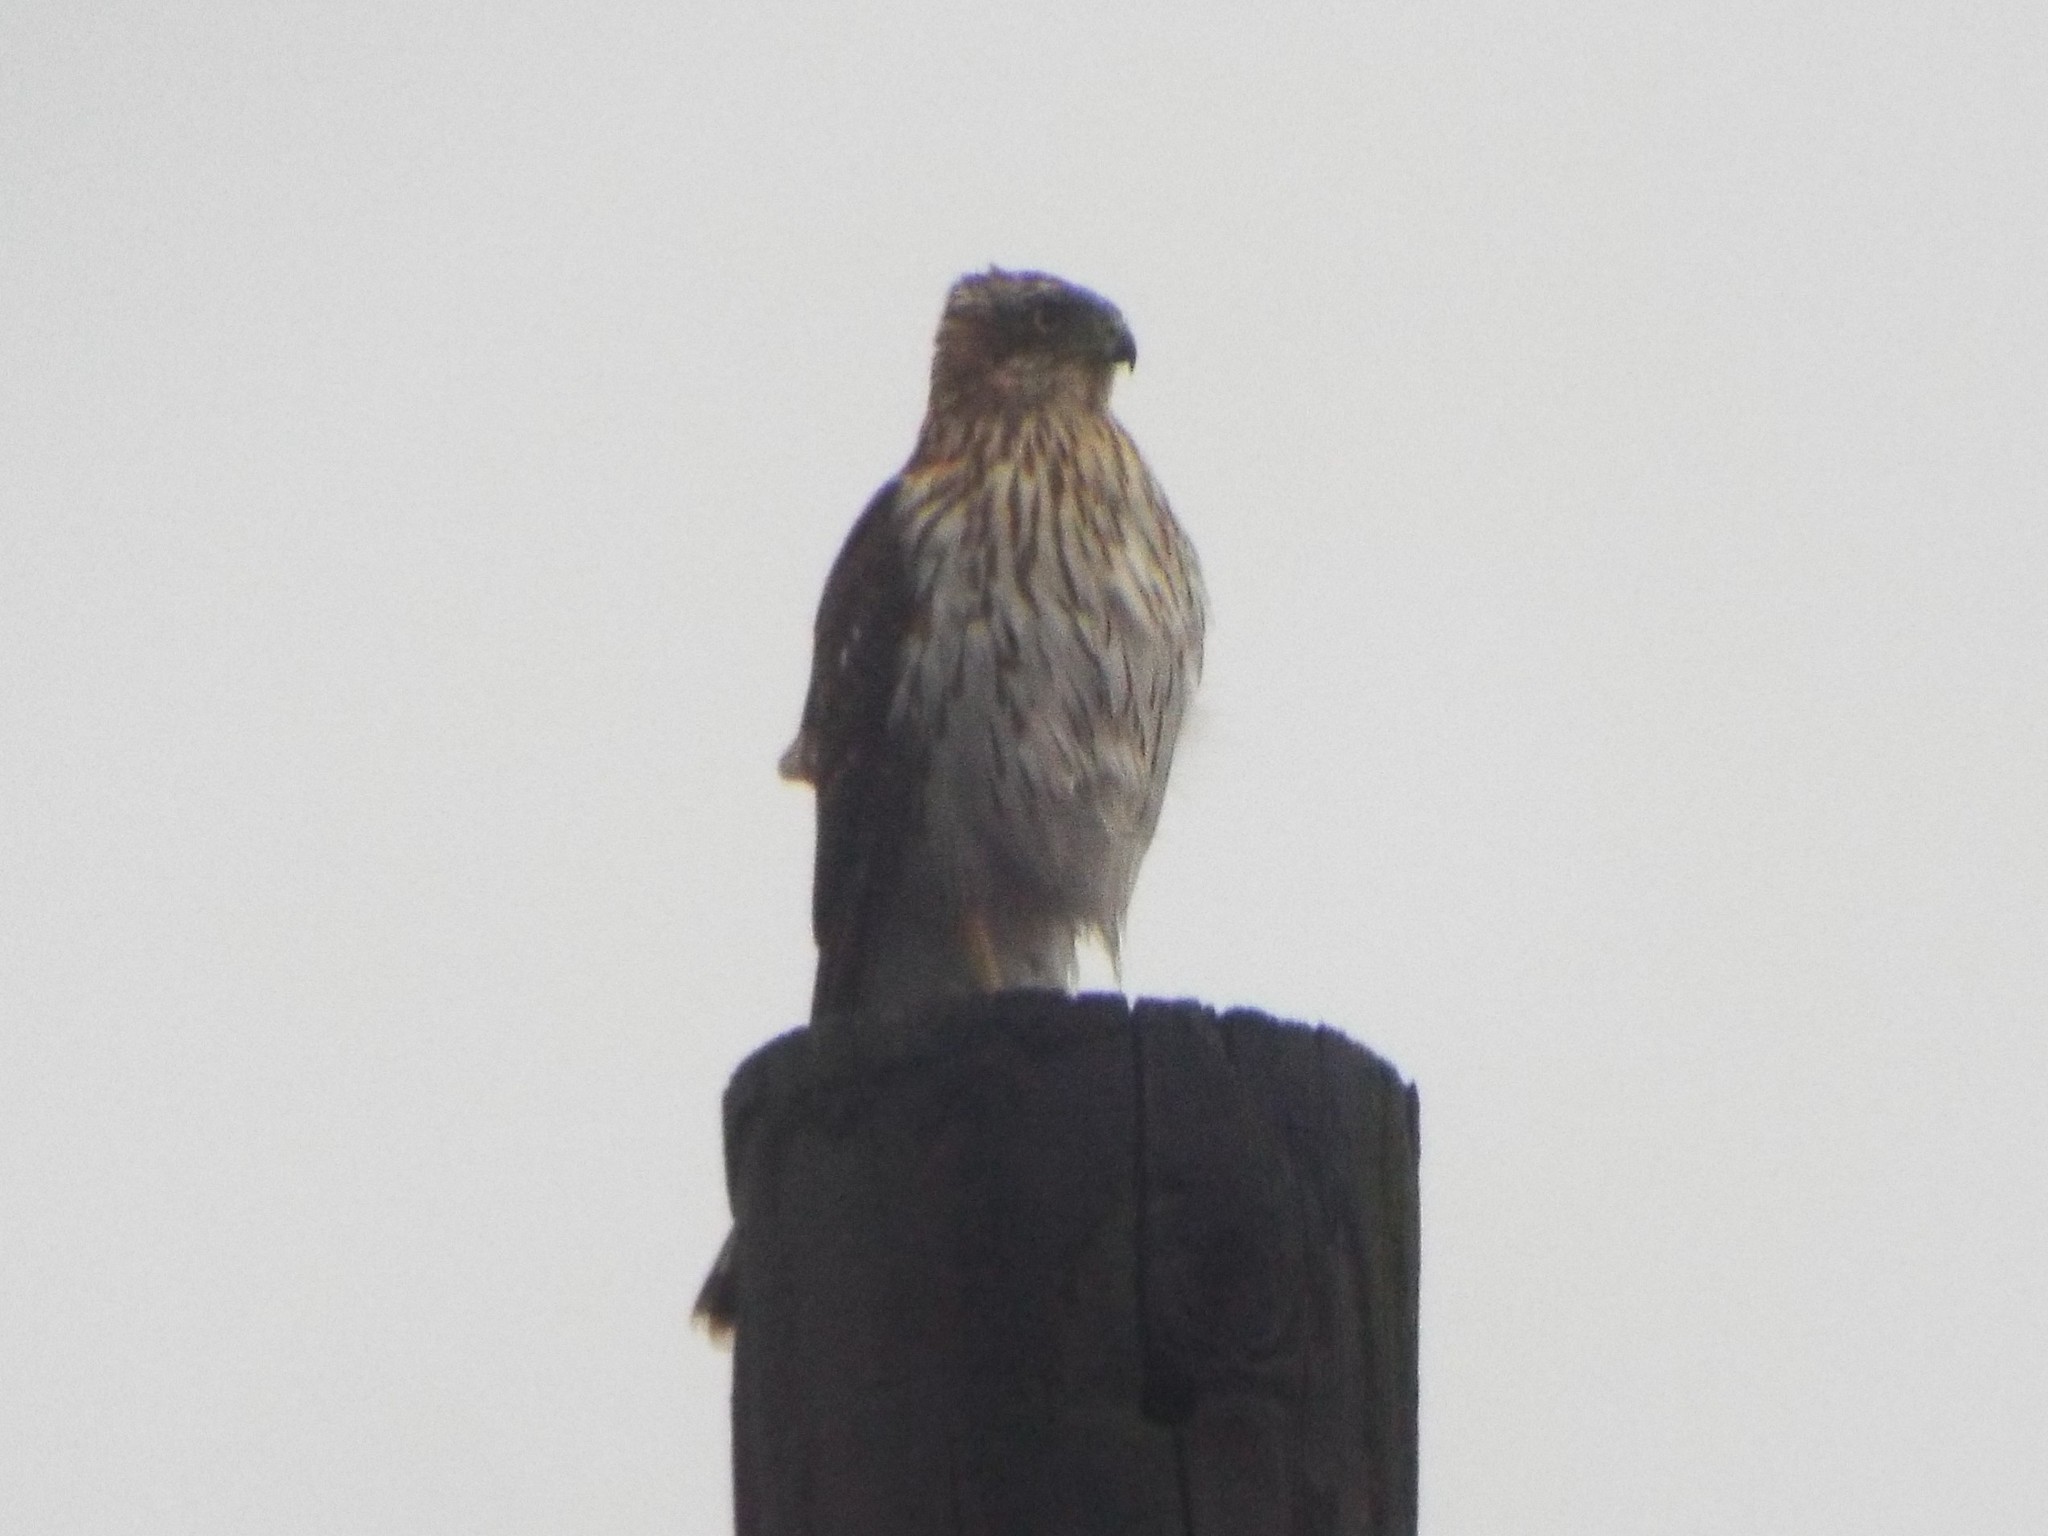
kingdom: Animalia
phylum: Chordata
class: Aves
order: Accipitriformes
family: Accipitridae
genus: Accipiter
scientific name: Accipiter cooperii
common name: Cooper's hawk
